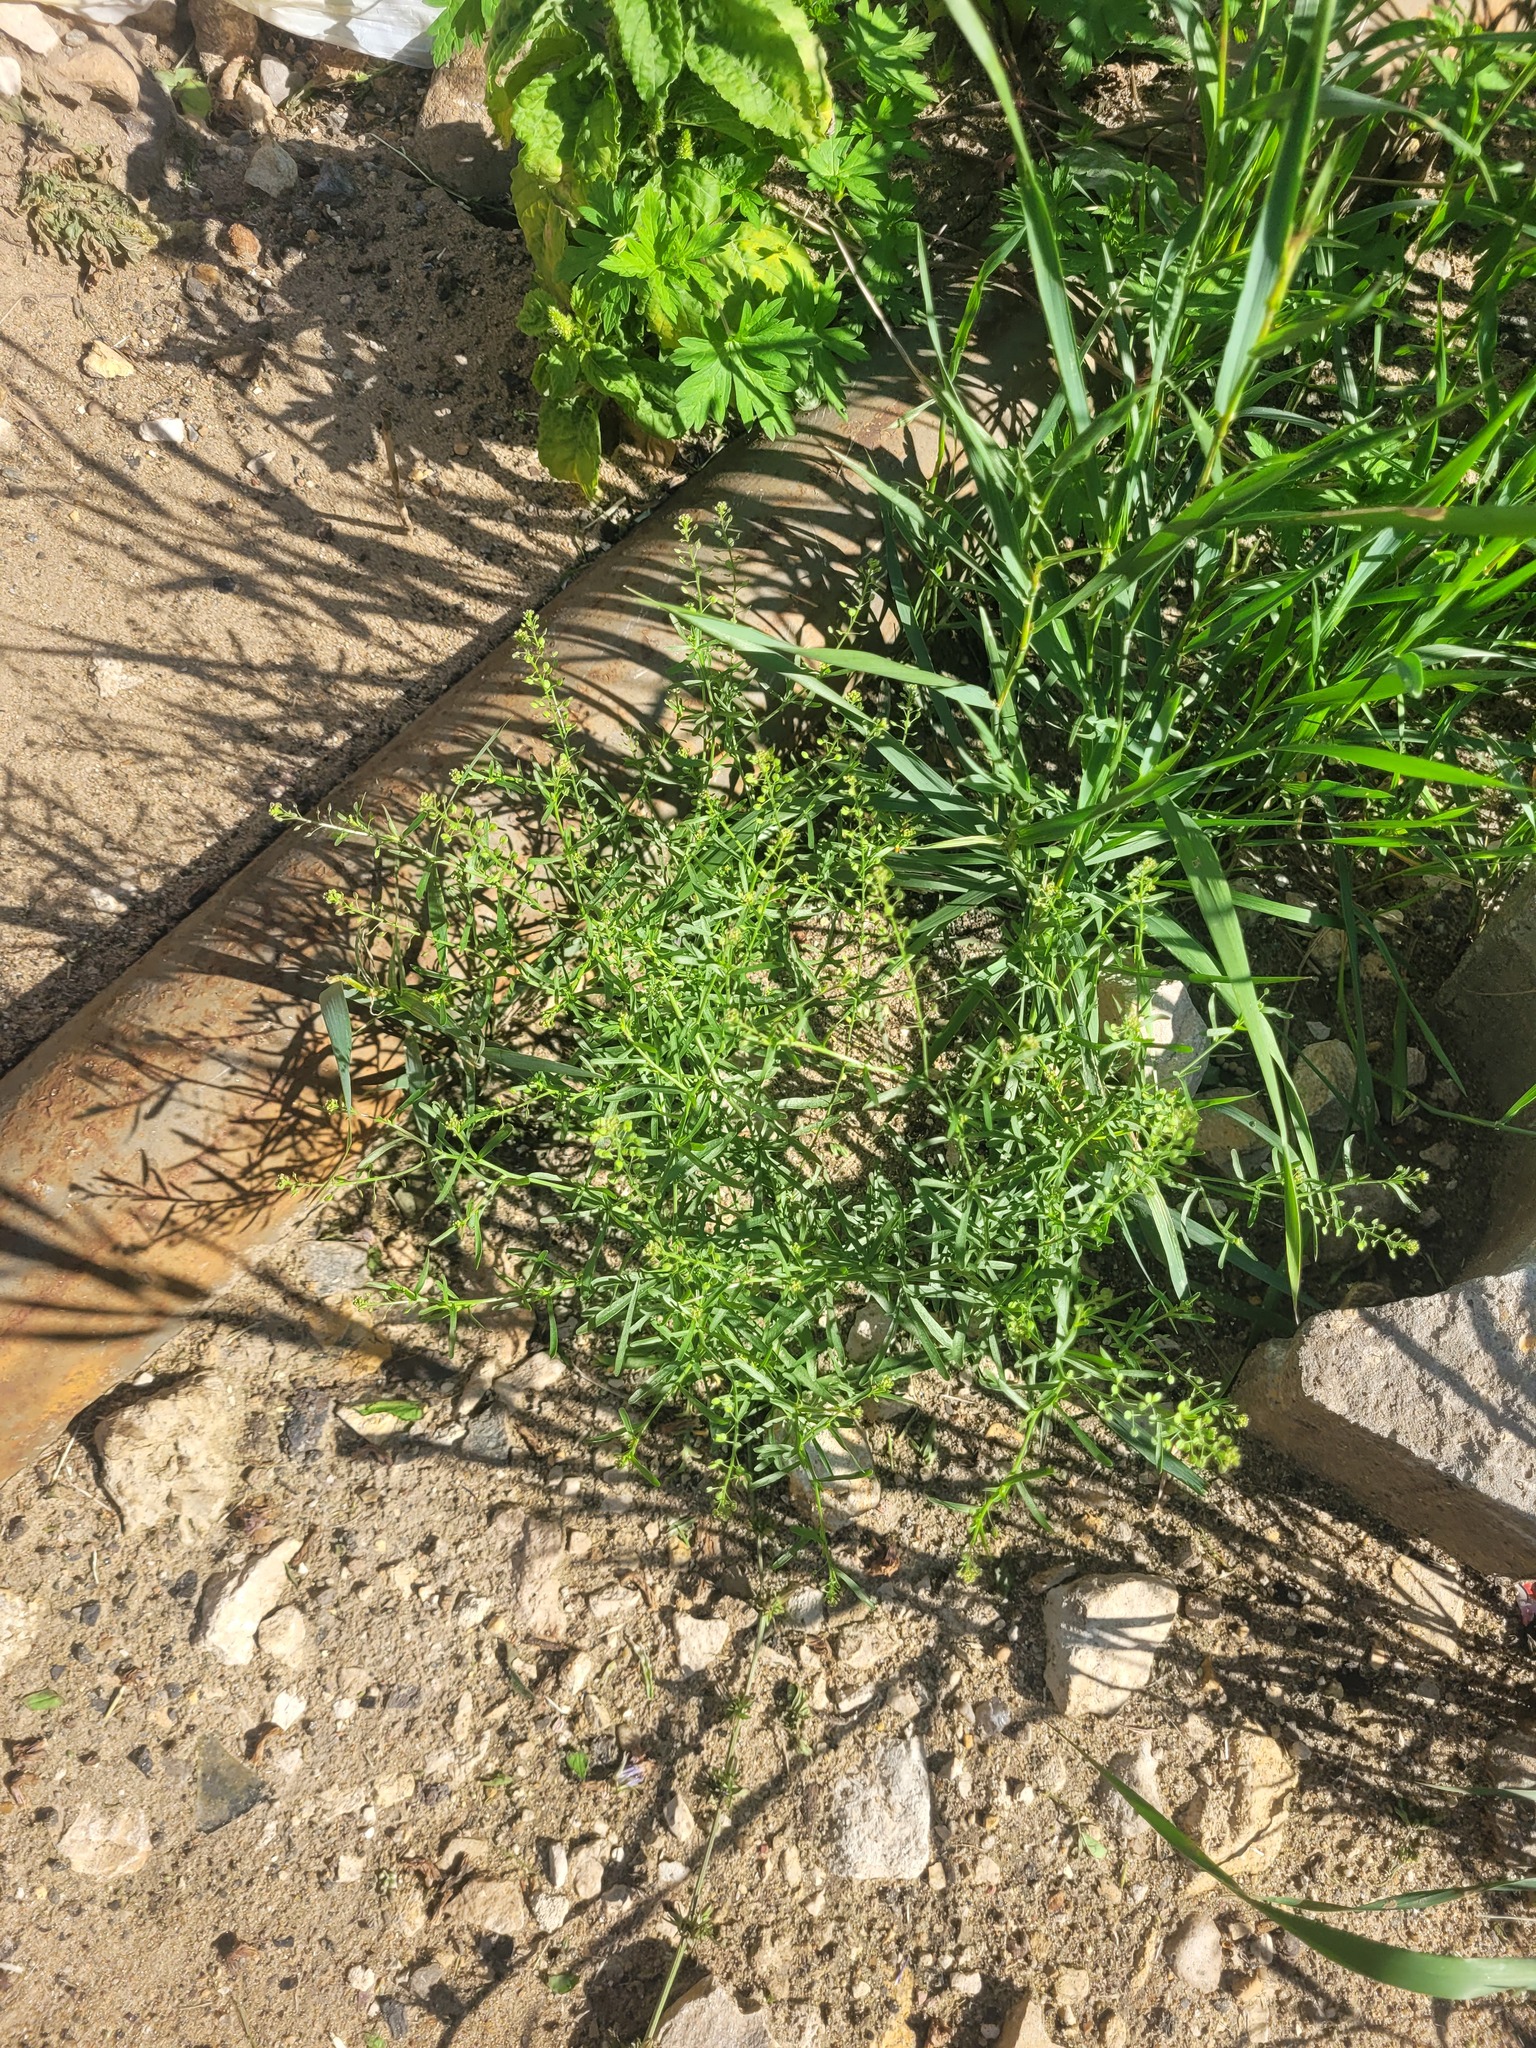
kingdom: Plantae
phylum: Tracheophyta
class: Magnoliopsida
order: Brassicales
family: Brassicaceae
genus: Lepidium
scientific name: Lepidium ruderale
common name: Narrow-leaved pepperwort
